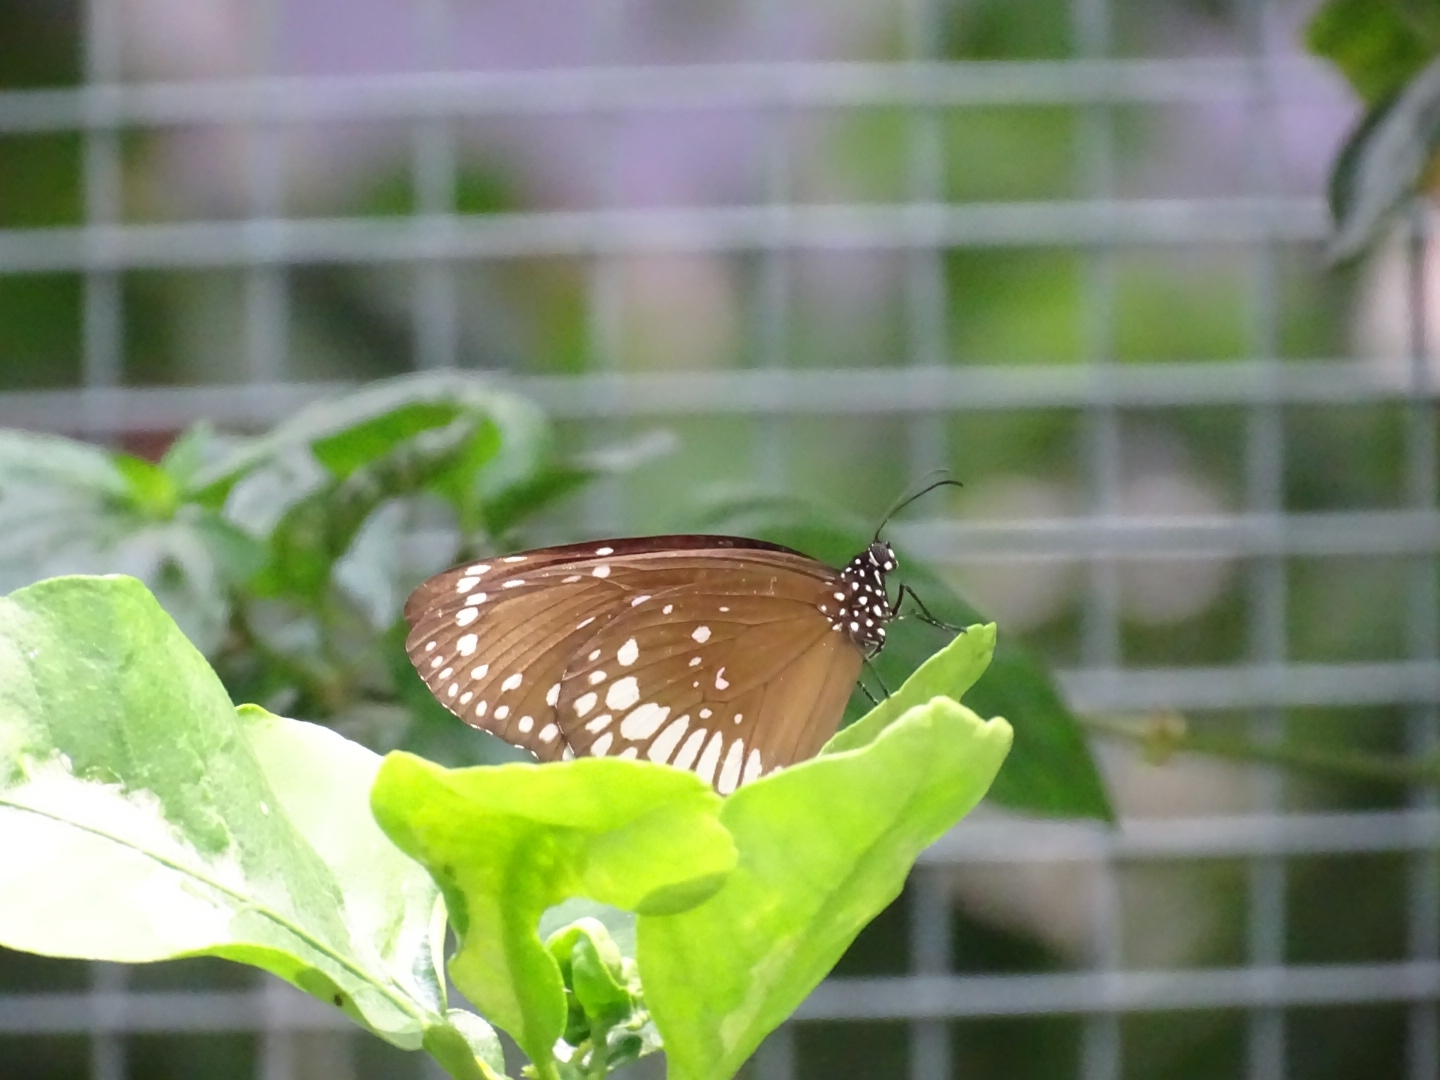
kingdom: Animalia
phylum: Arthropoda
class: Insecta
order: Lepidoptera
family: Nymphalidae
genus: Euploea
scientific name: Euploea core
